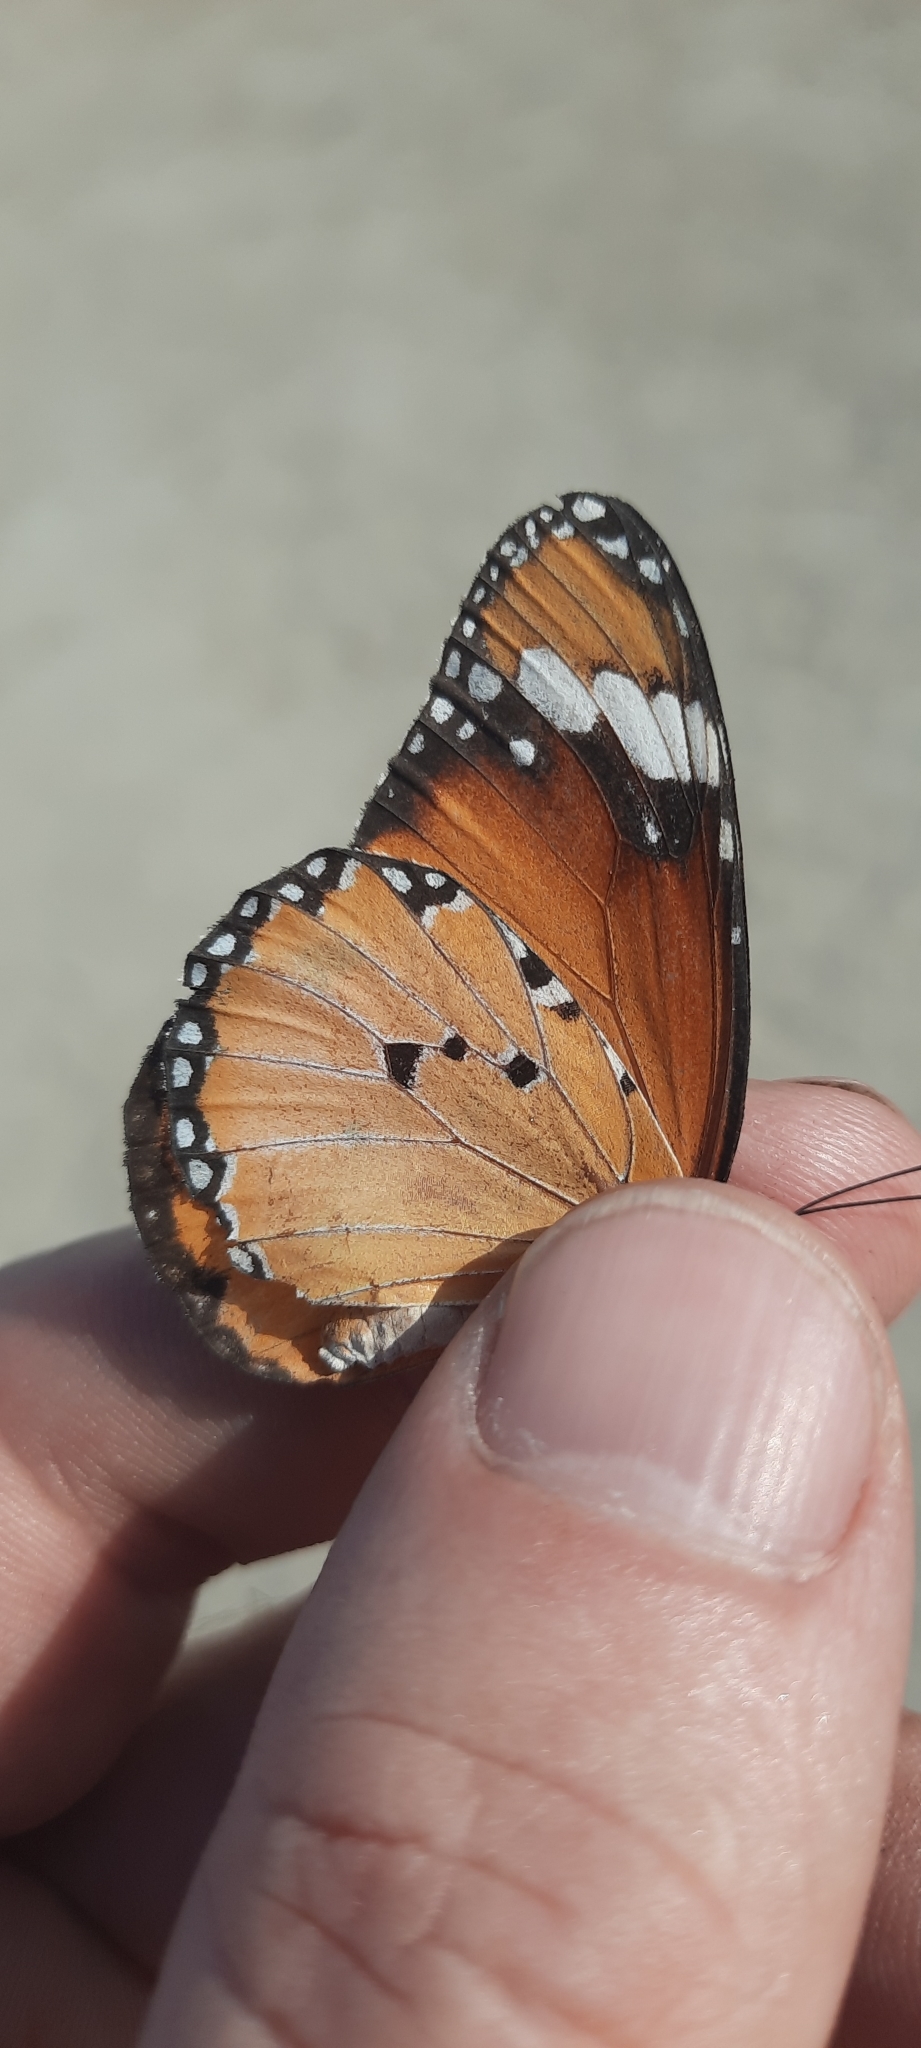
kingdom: Animalia
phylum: Arthropoda
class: Insecta
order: Lepidoptera
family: Nymphalidae
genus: Danaus
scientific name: Danaus chrysippus
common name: Plain tiger
